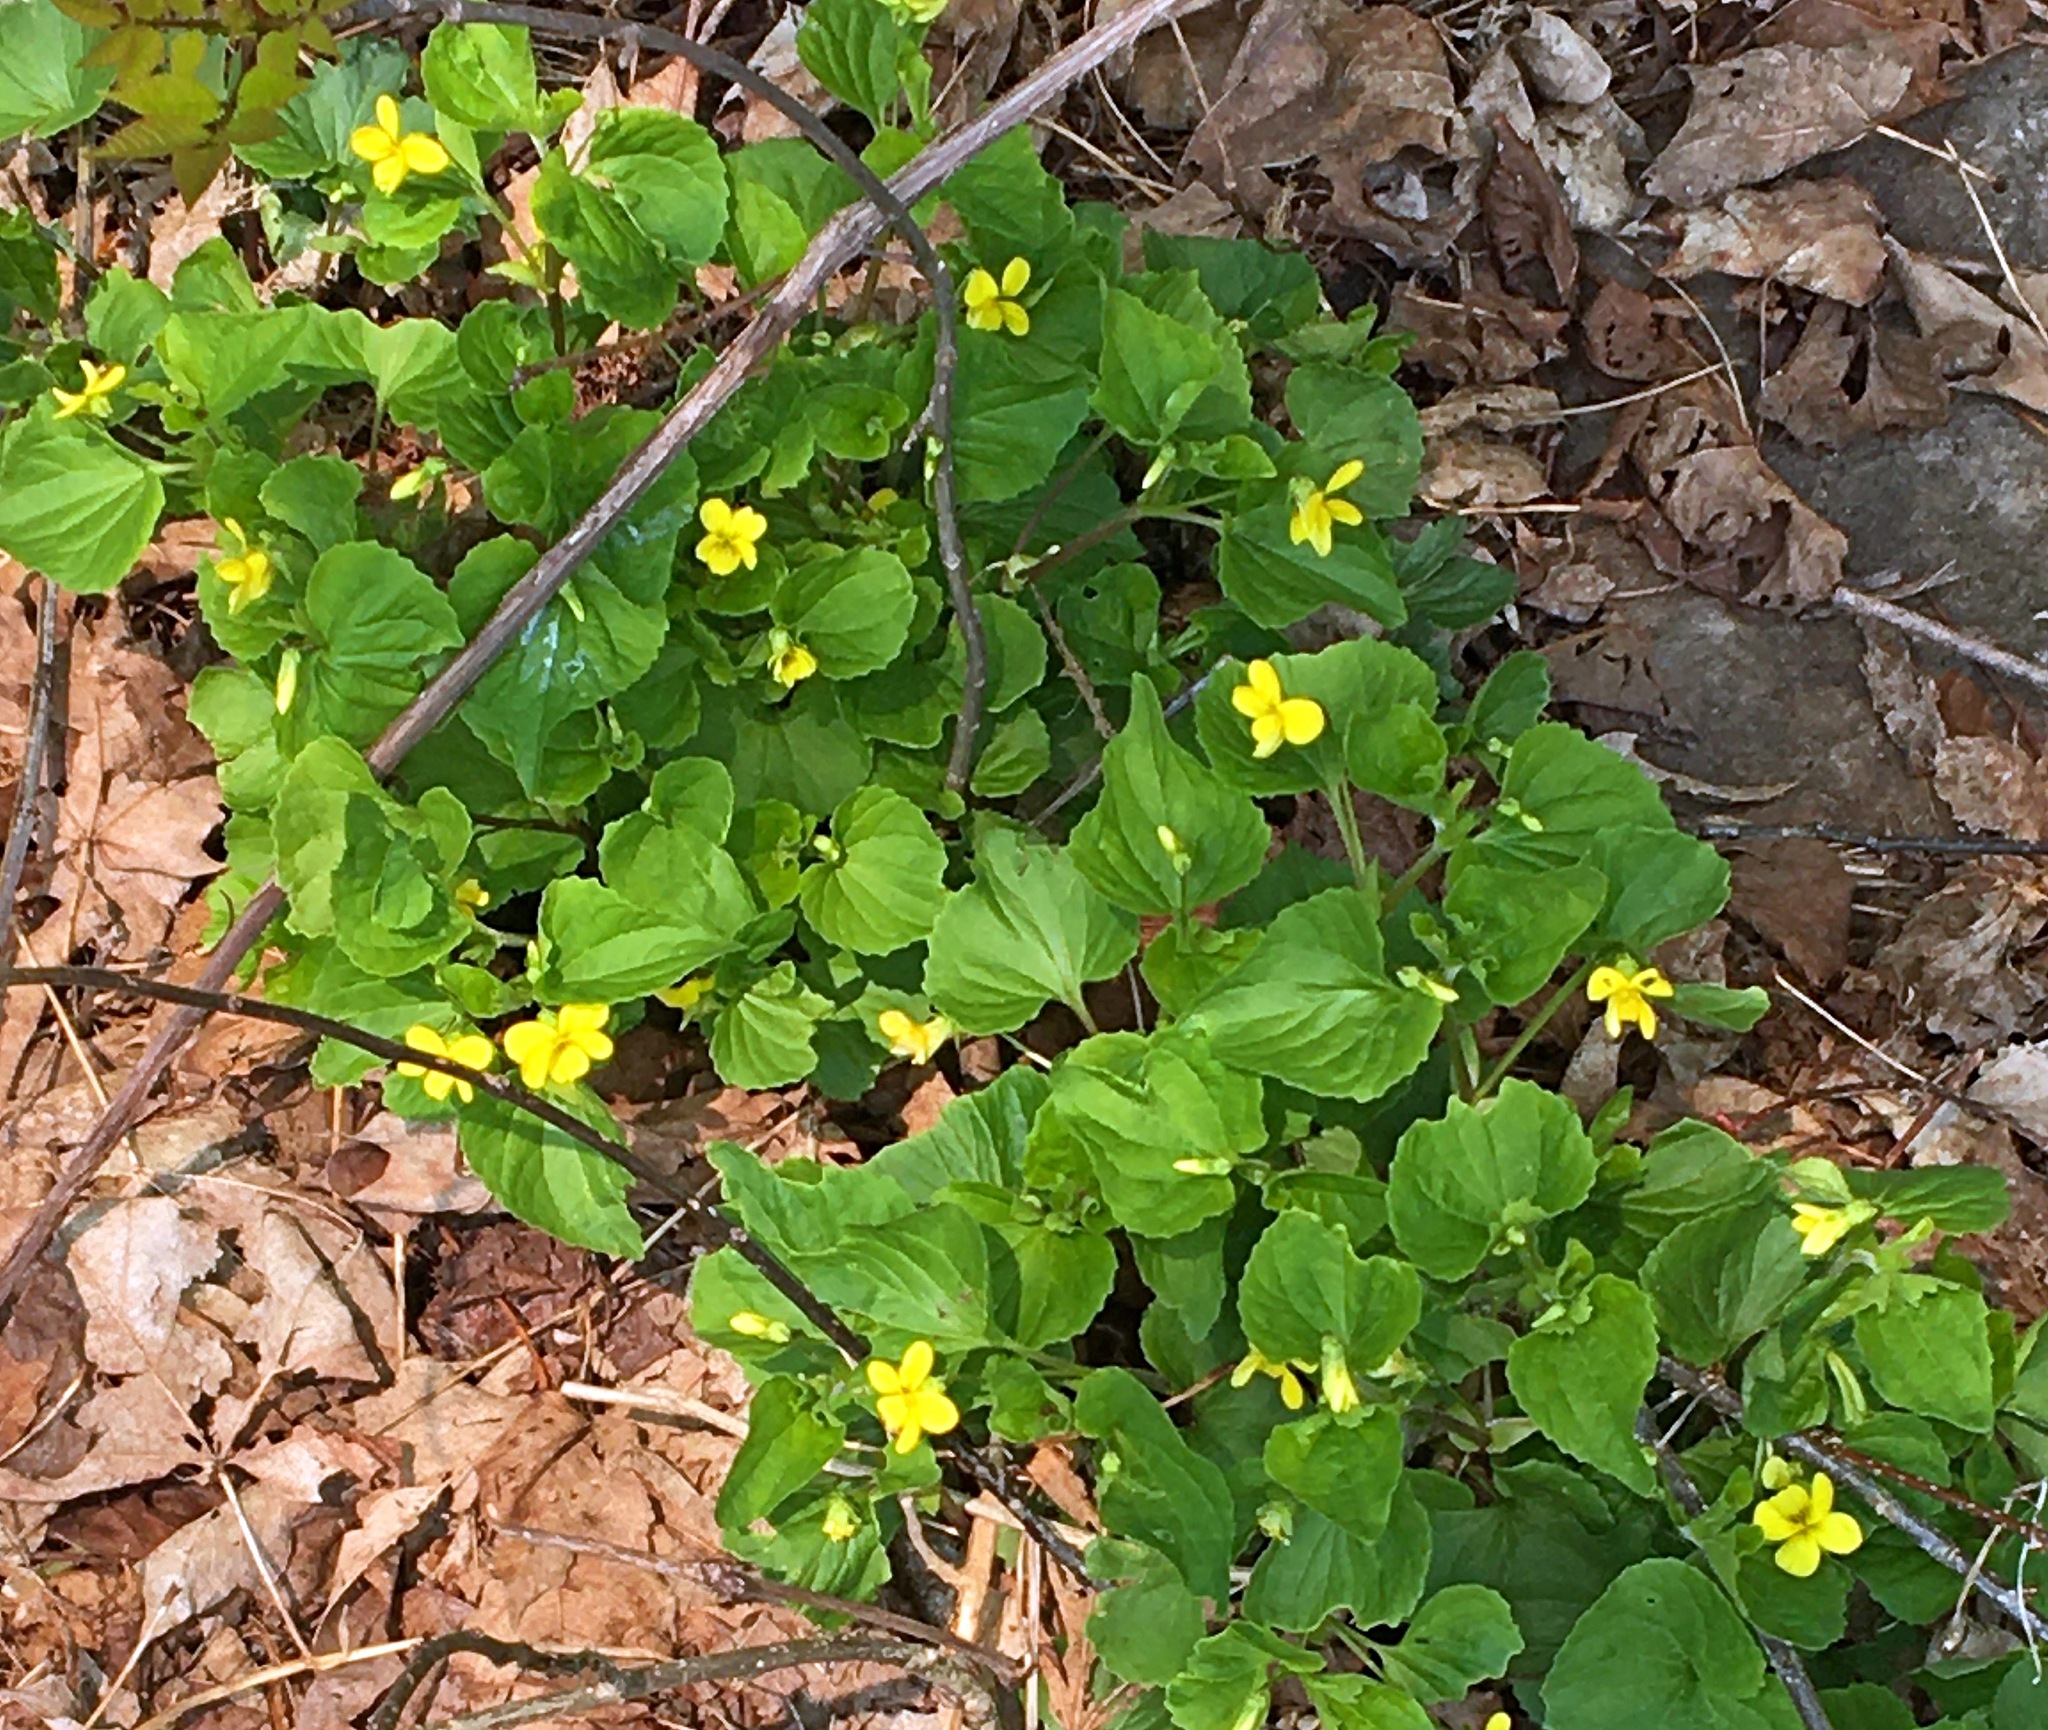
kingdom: Plantae
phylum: Tracheophyta
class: Magnoliopsida
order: Malpighiales
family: Violaceae
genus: Viola
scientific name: Viola eriocarpa
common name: Smooth yellow violet
